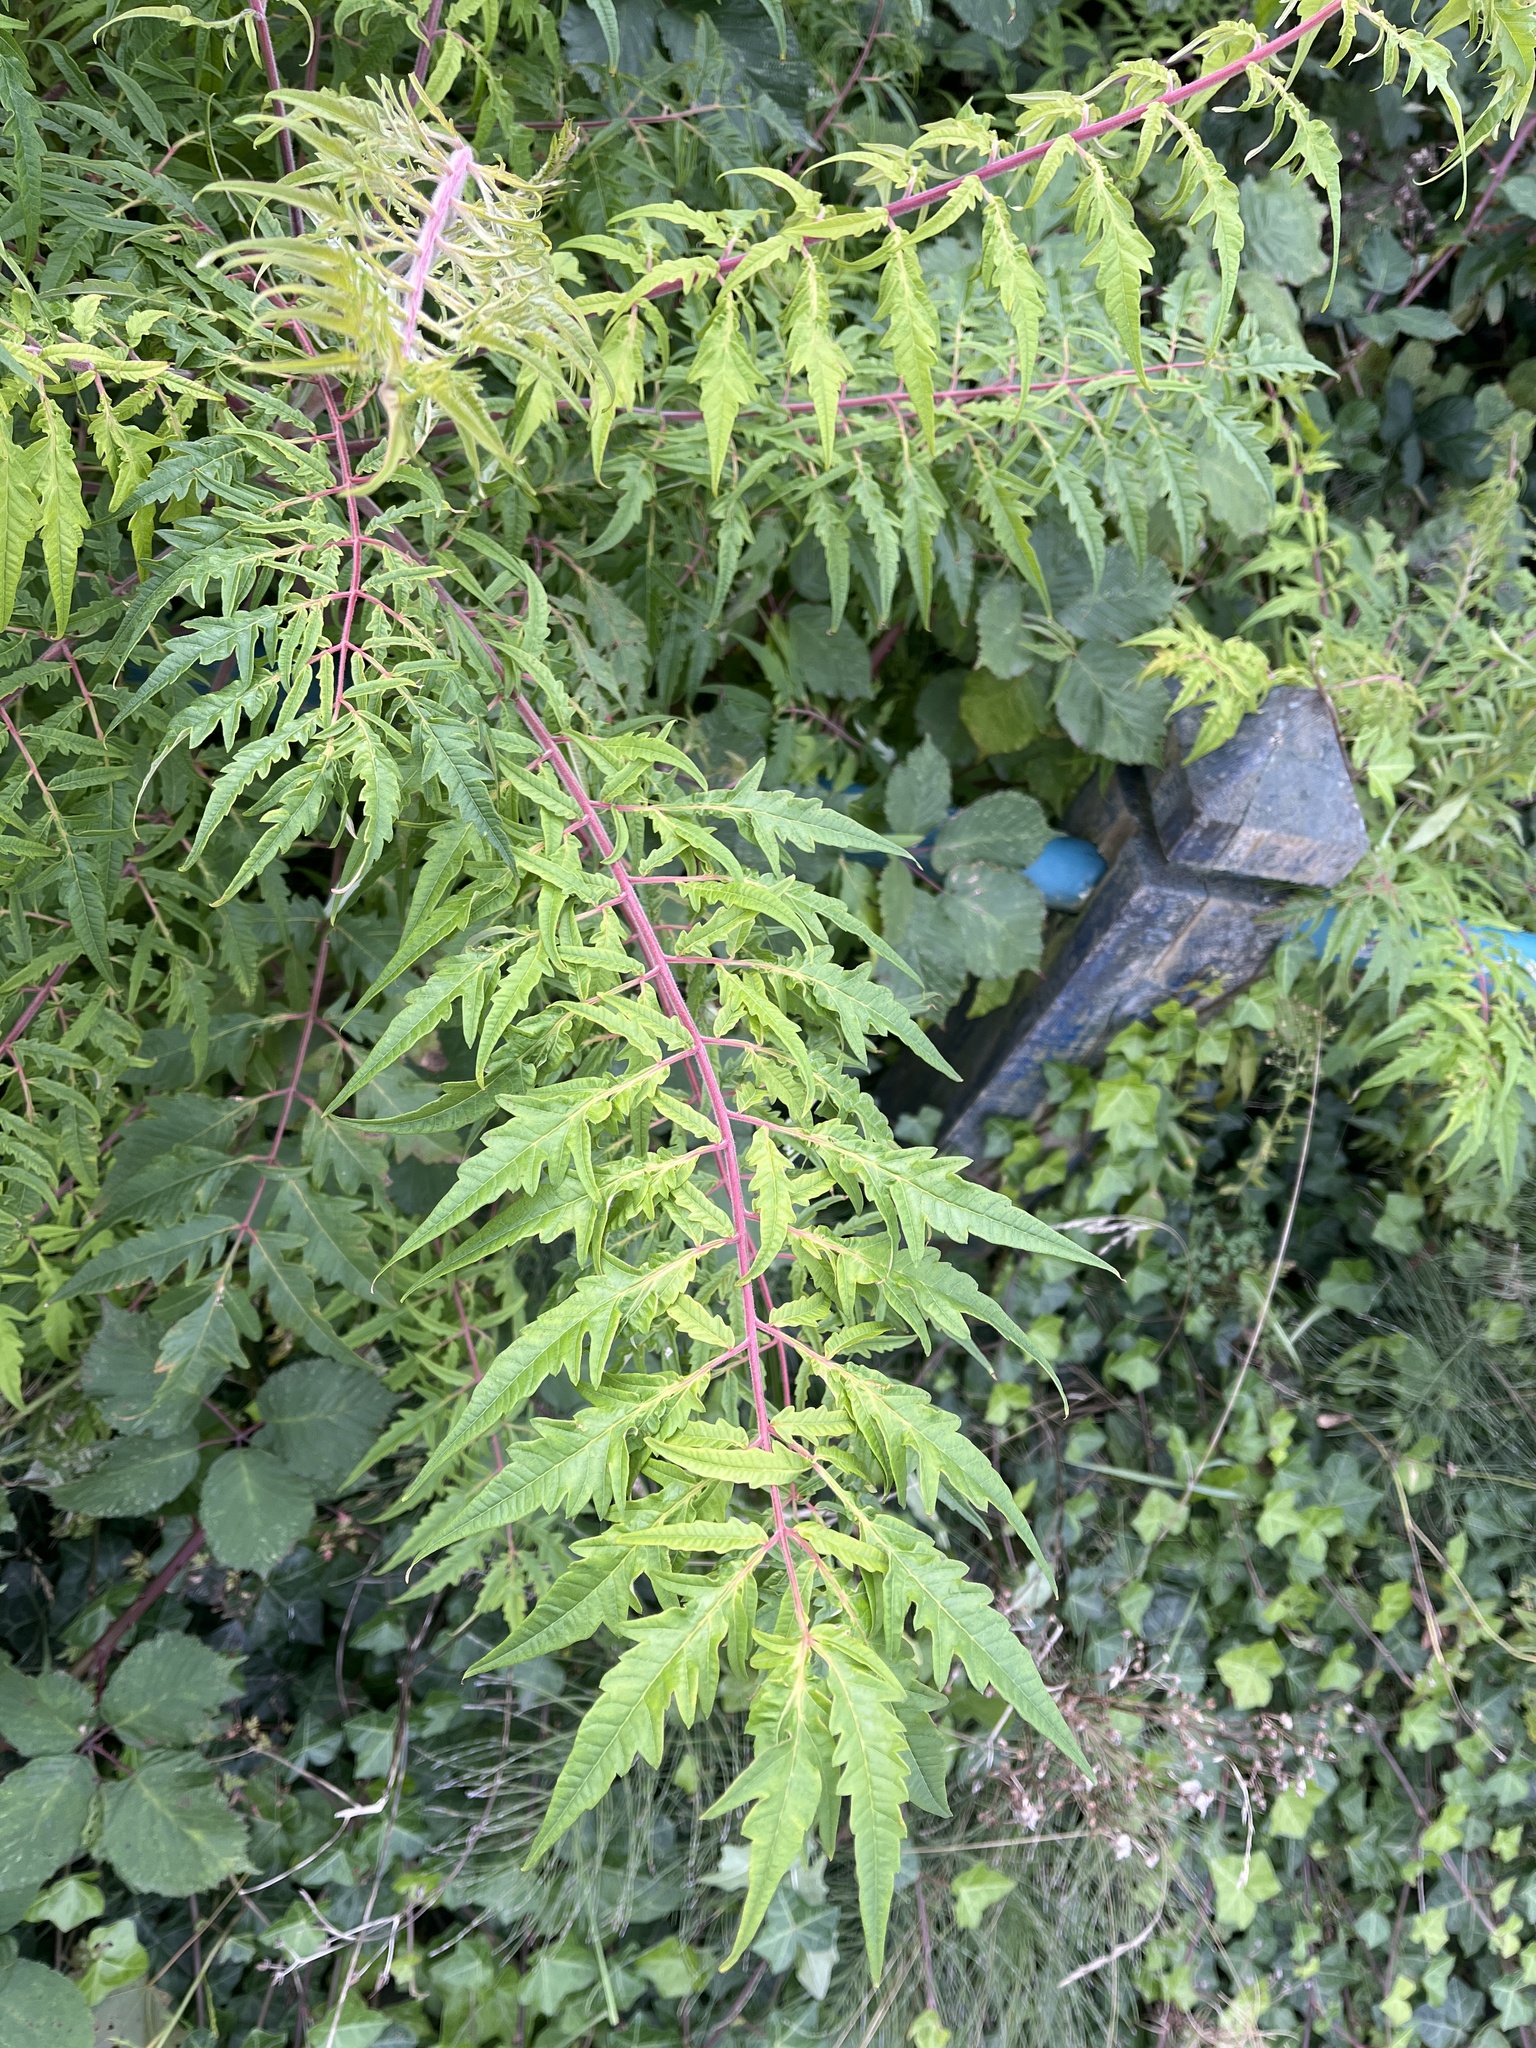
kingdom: Plantae
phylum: Tracheophyta
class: Magnoliopsida
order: Sapindales
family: Anacardiaceae
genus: Rhus
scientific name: Rhus typhina
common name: Staghorn sumac
